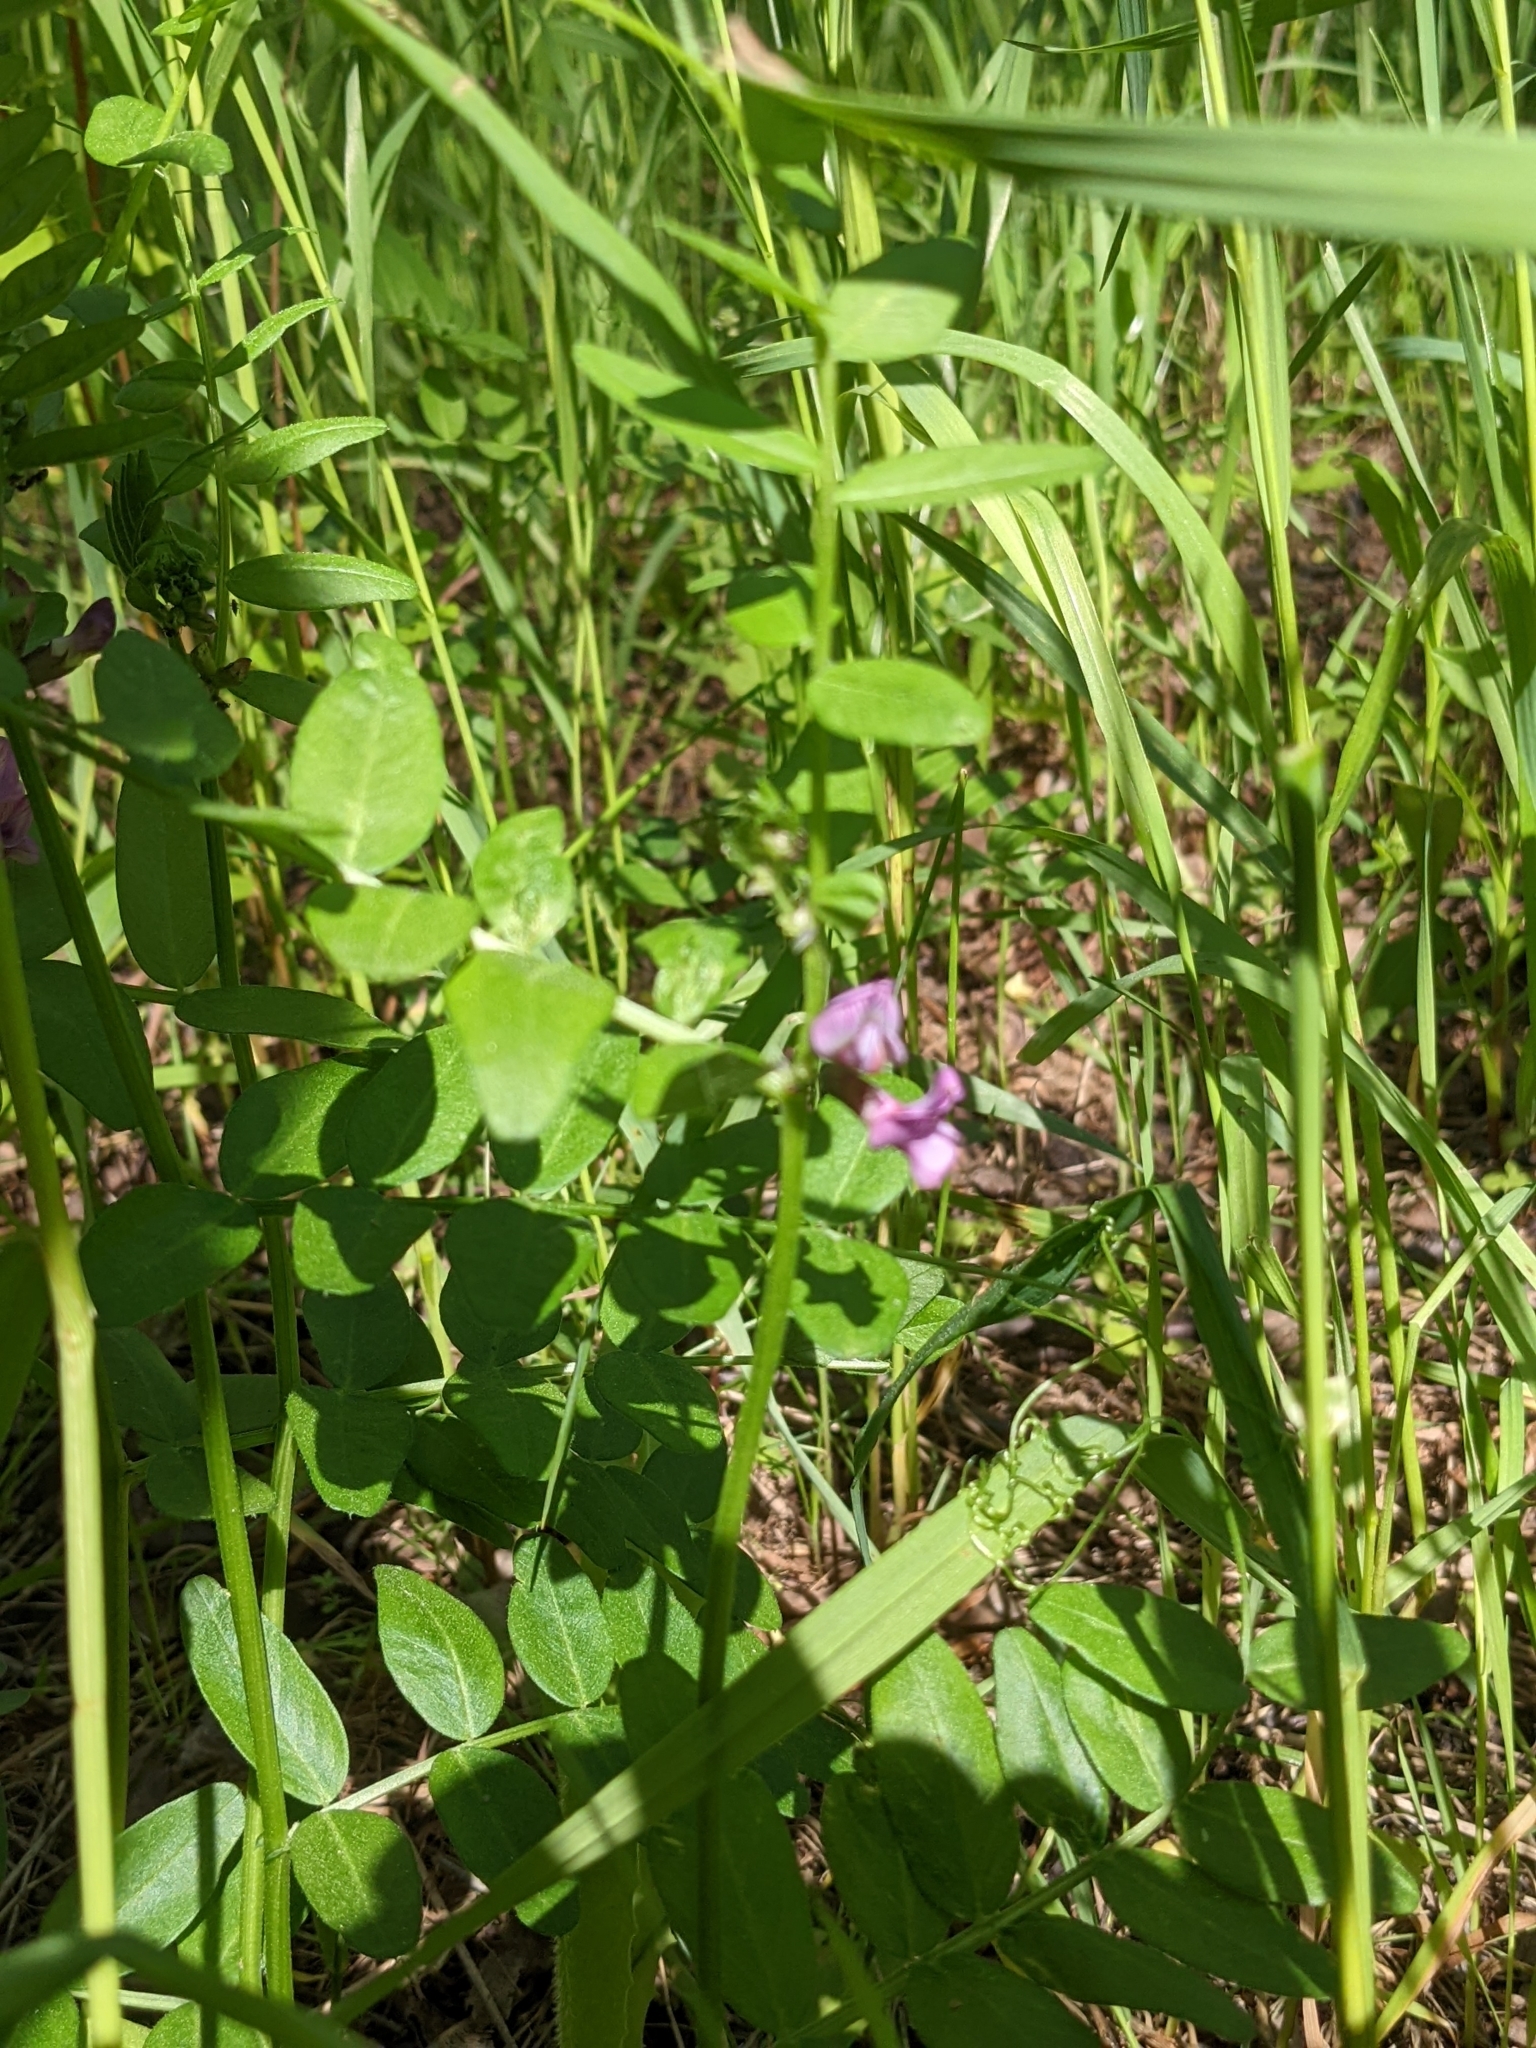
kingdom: Plantae
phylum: Tracheophyta
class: Magnoliopsida
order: Fabales
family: Fabaceae
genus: Vicia
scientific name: Vicia sepium
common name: Bush vetch
